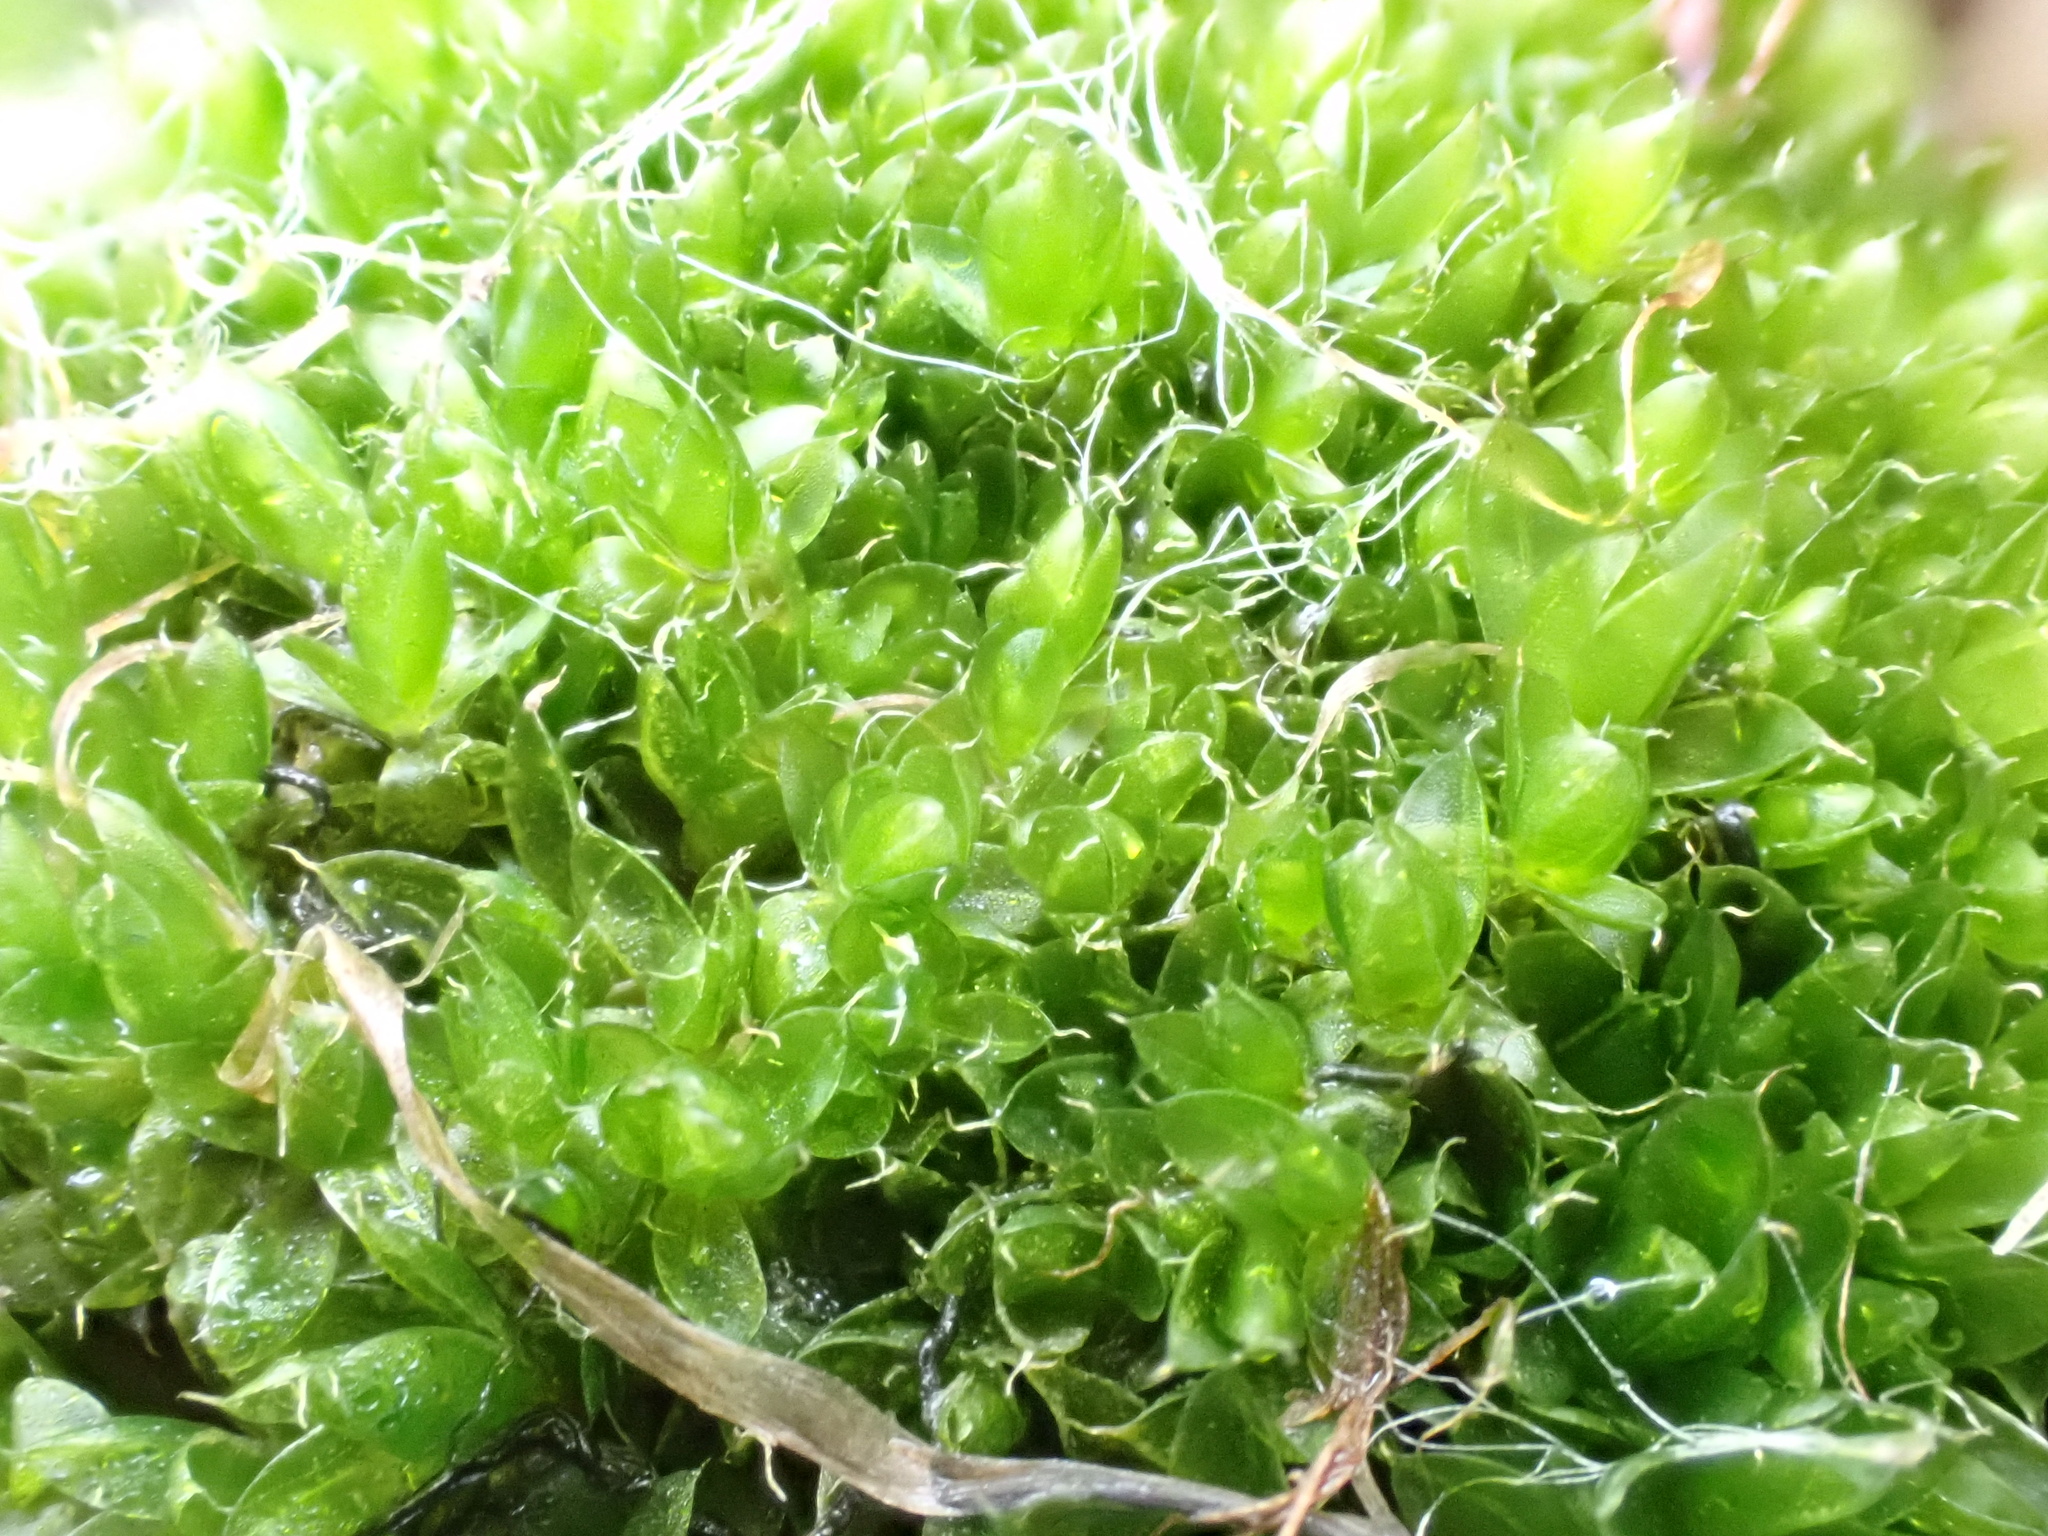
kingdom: Plantae
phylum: Bryophyta
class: Bryopsida
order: Bryales
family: Bryaceae
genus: Rosulabryum
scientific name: Rosulabryum capillare
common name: Capillary thread-moss
